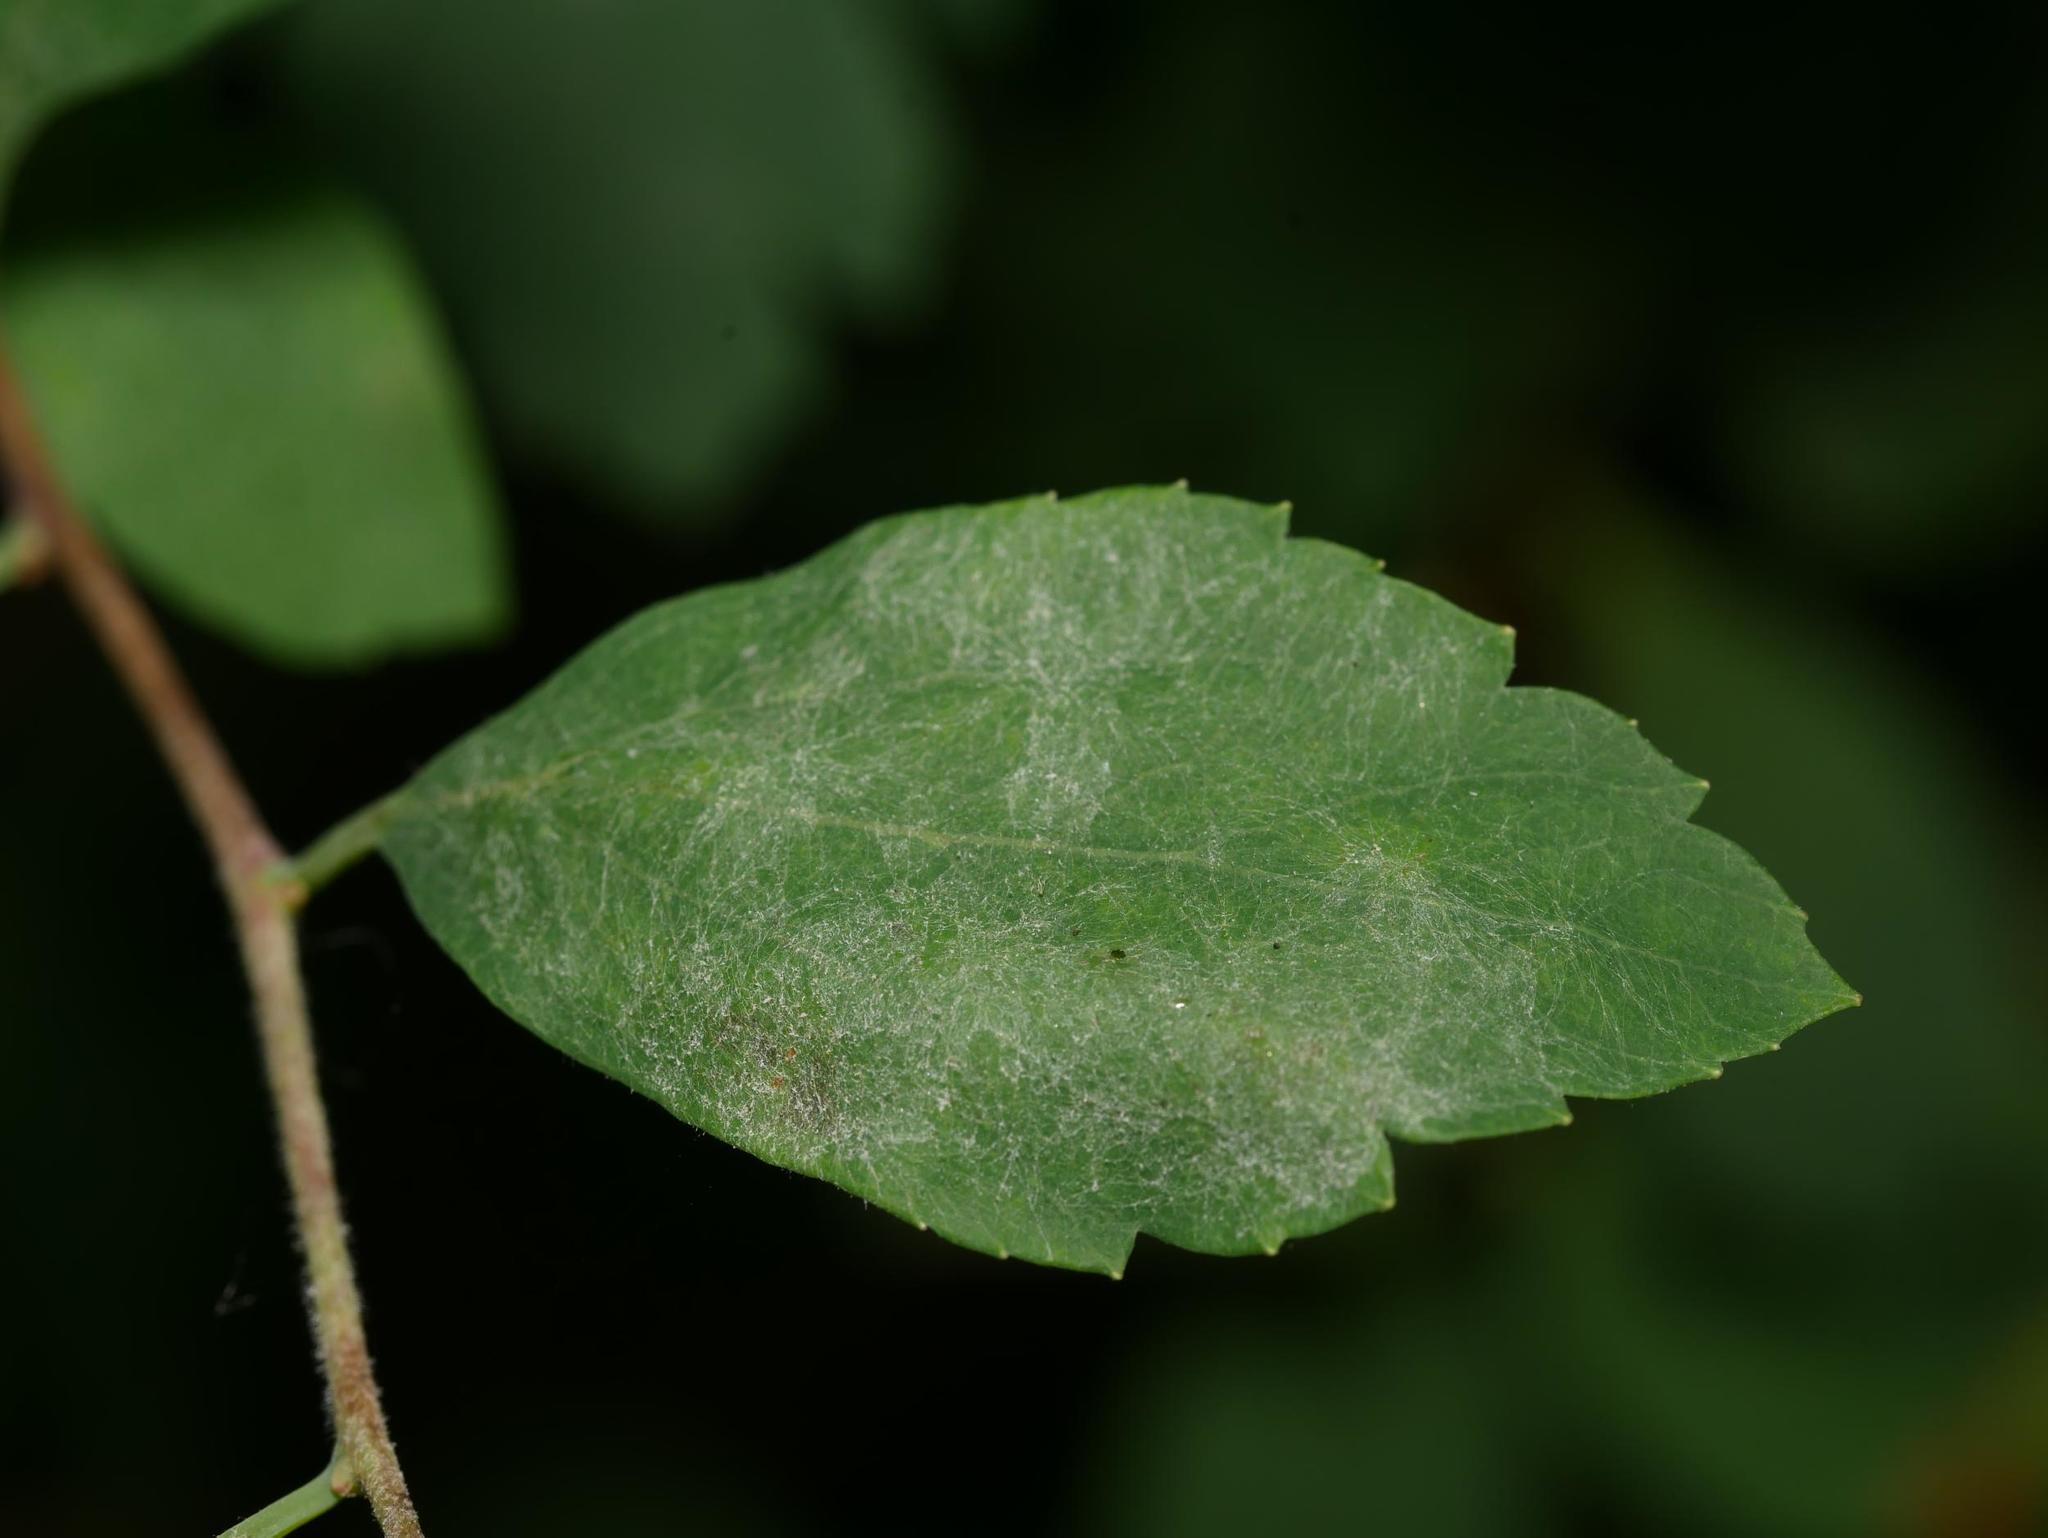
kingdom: Fungi
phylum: Ascomycota
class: Leotiomycetes
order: Helotiales
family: Erysiphaceae
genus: Podosphaera
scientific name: Podosphaera spiraeae
